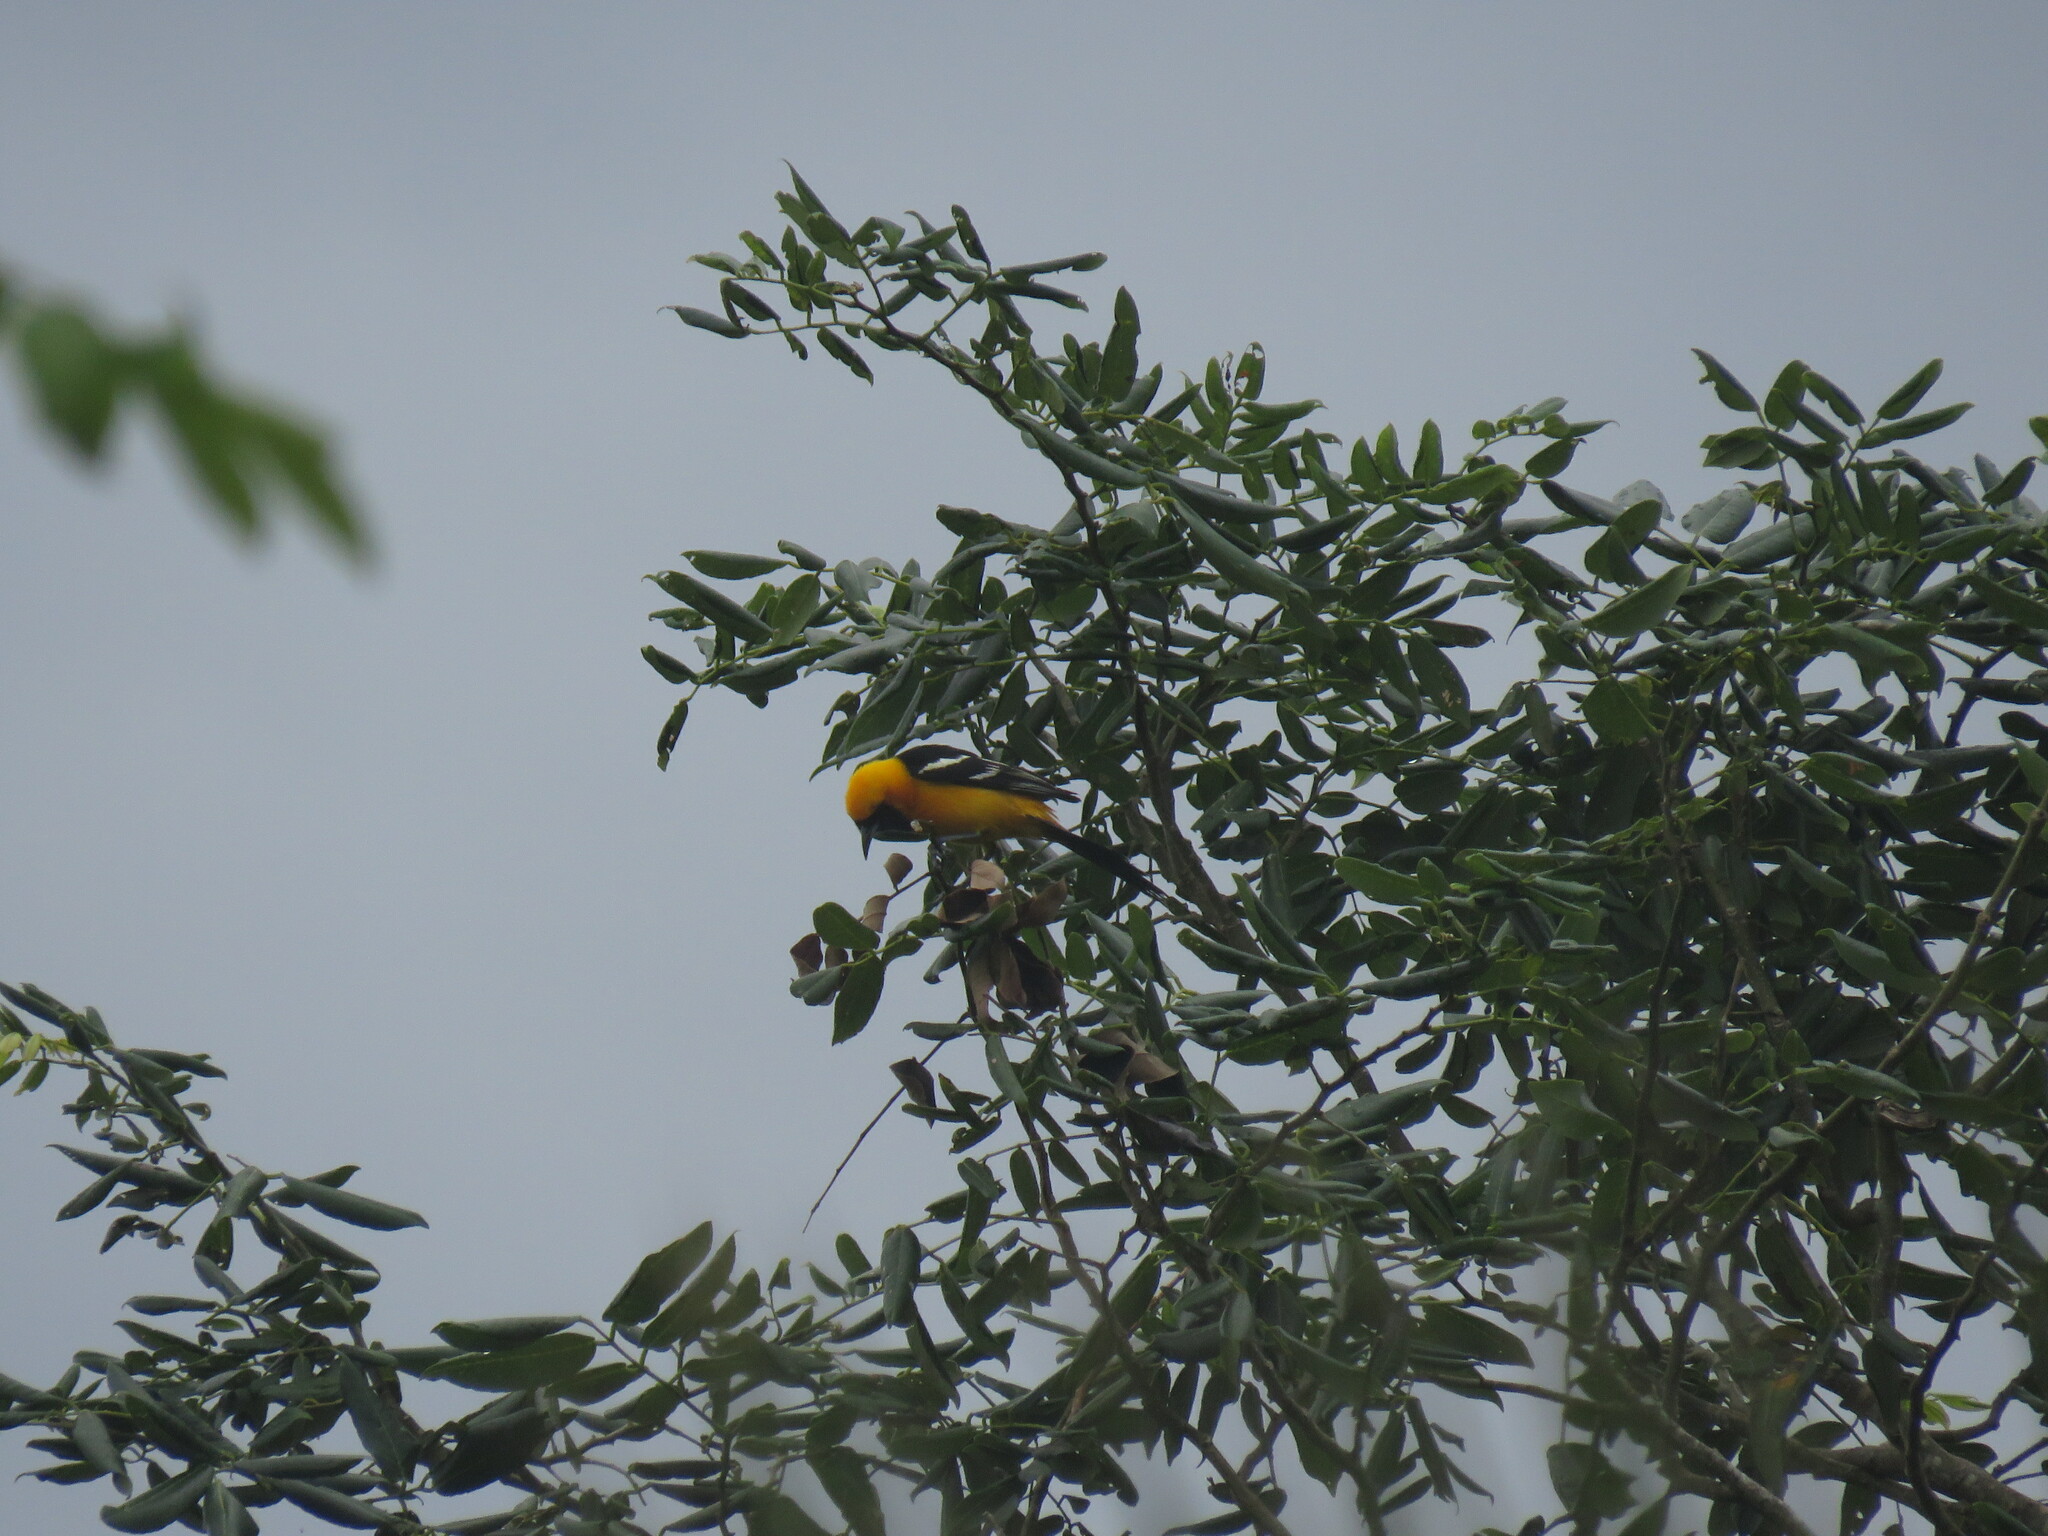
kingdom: Animalia
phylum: Chordata
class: Aves
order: Passeriformes
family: Icteridae
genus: Icterus
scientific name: Icterus cucullatus
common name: Hooded oriole
